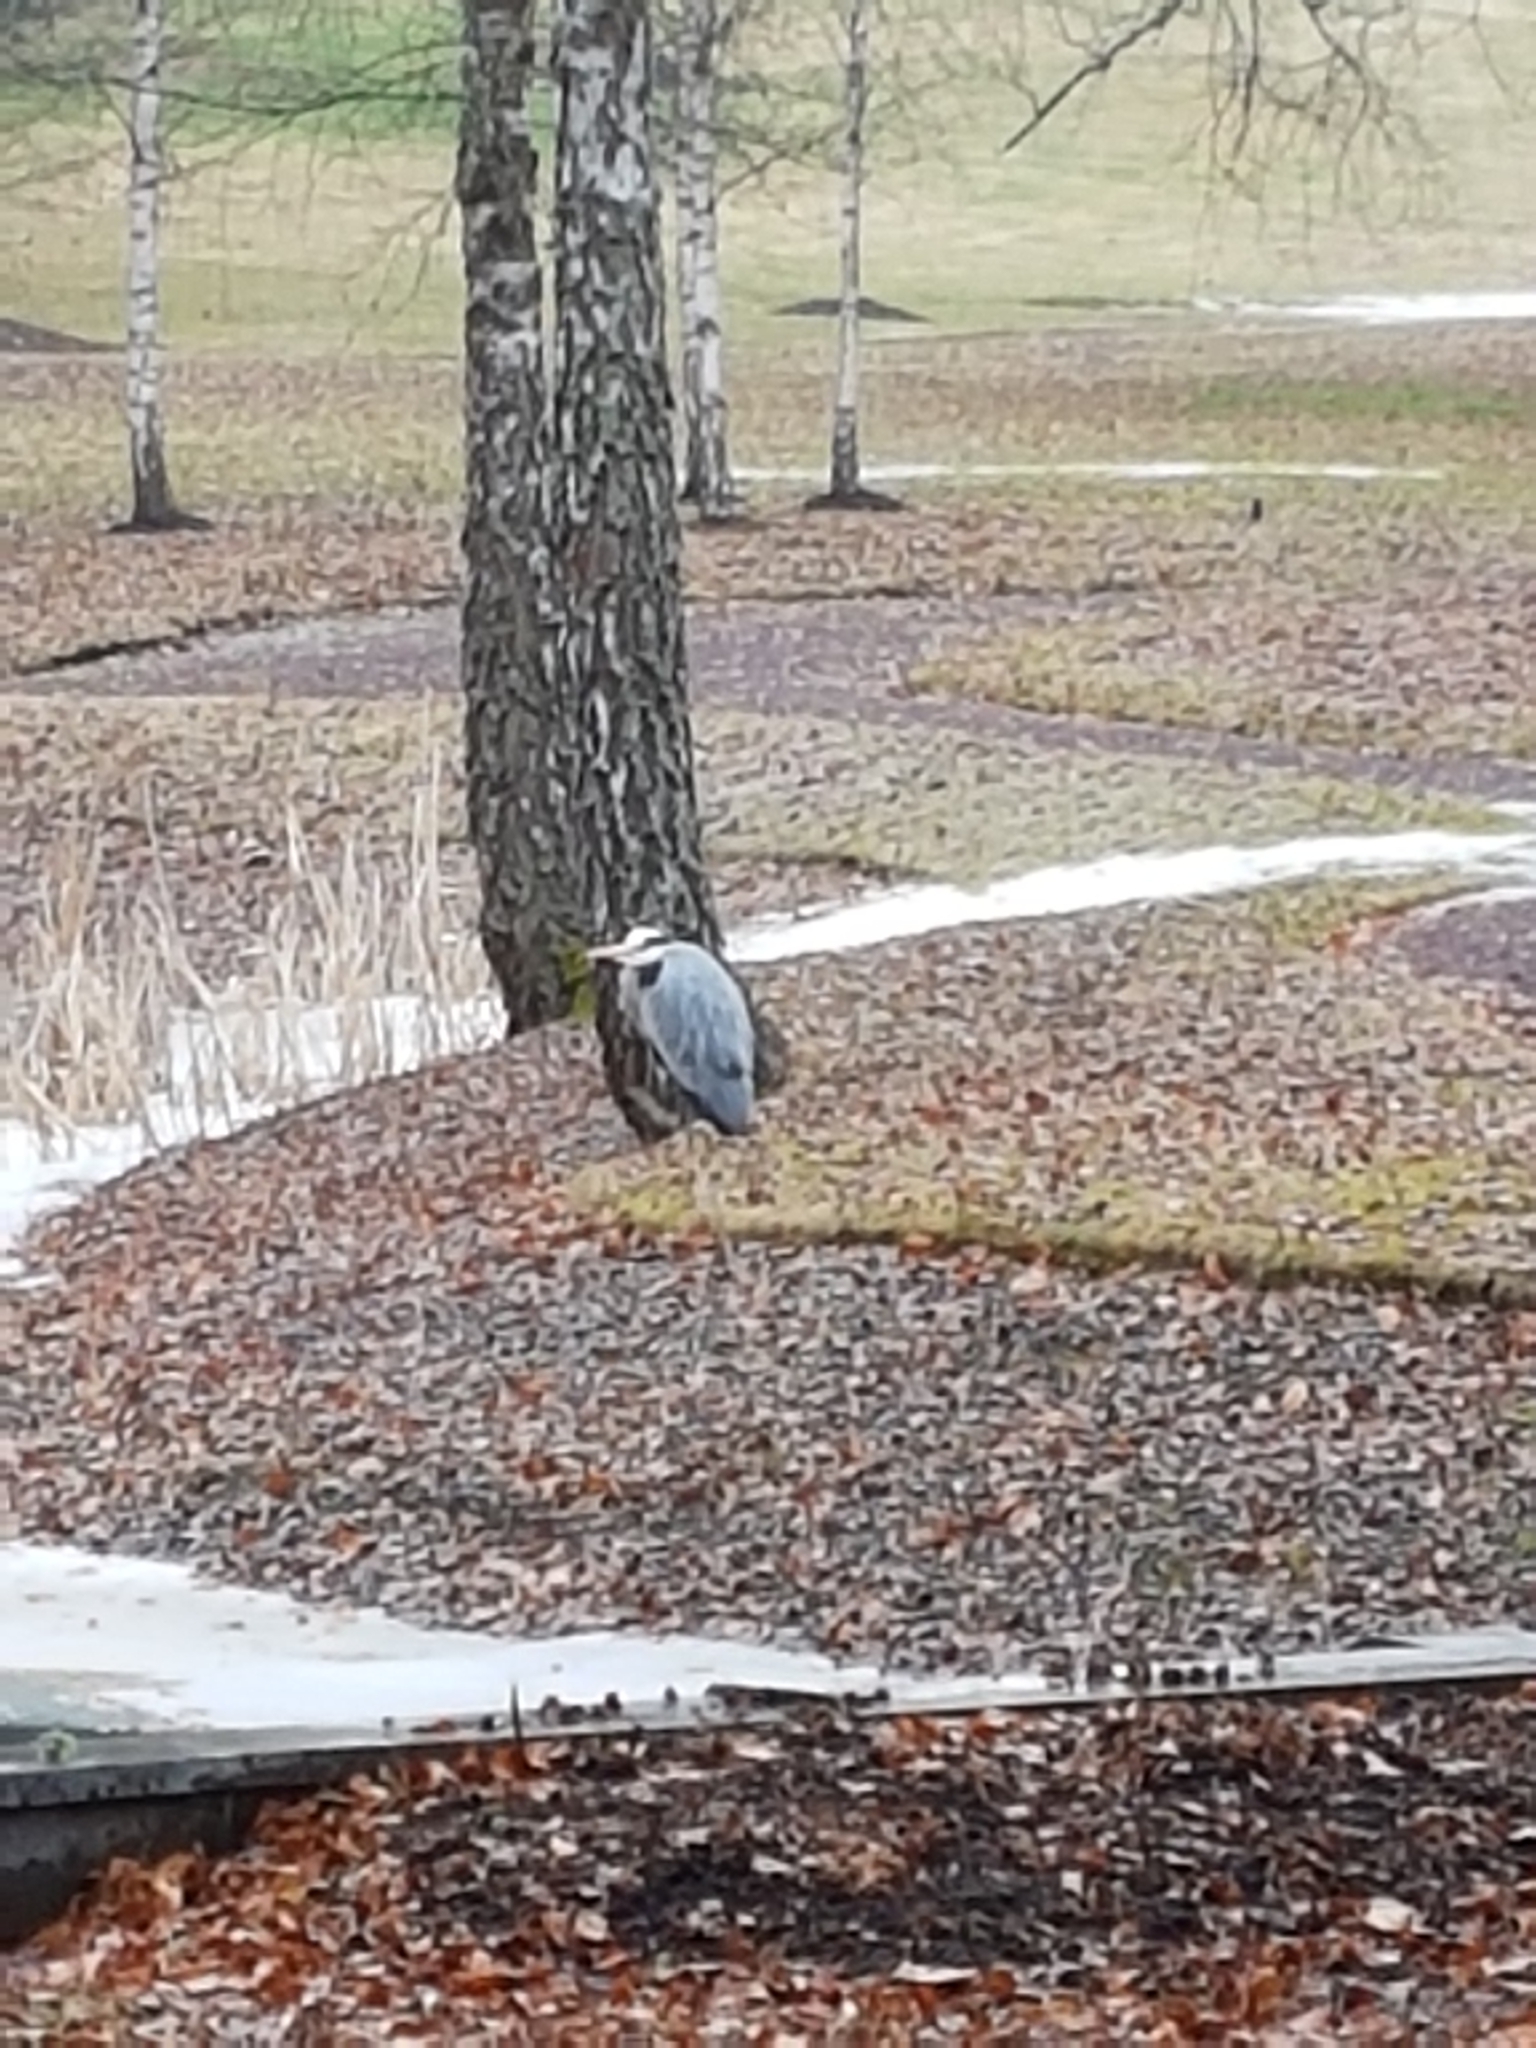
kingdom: Animalia
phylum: Chordata
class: Aves
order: Pelecaniformes
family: Ardeidae
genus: Ardea
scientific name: Ardea cinerea
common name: Grey heron
